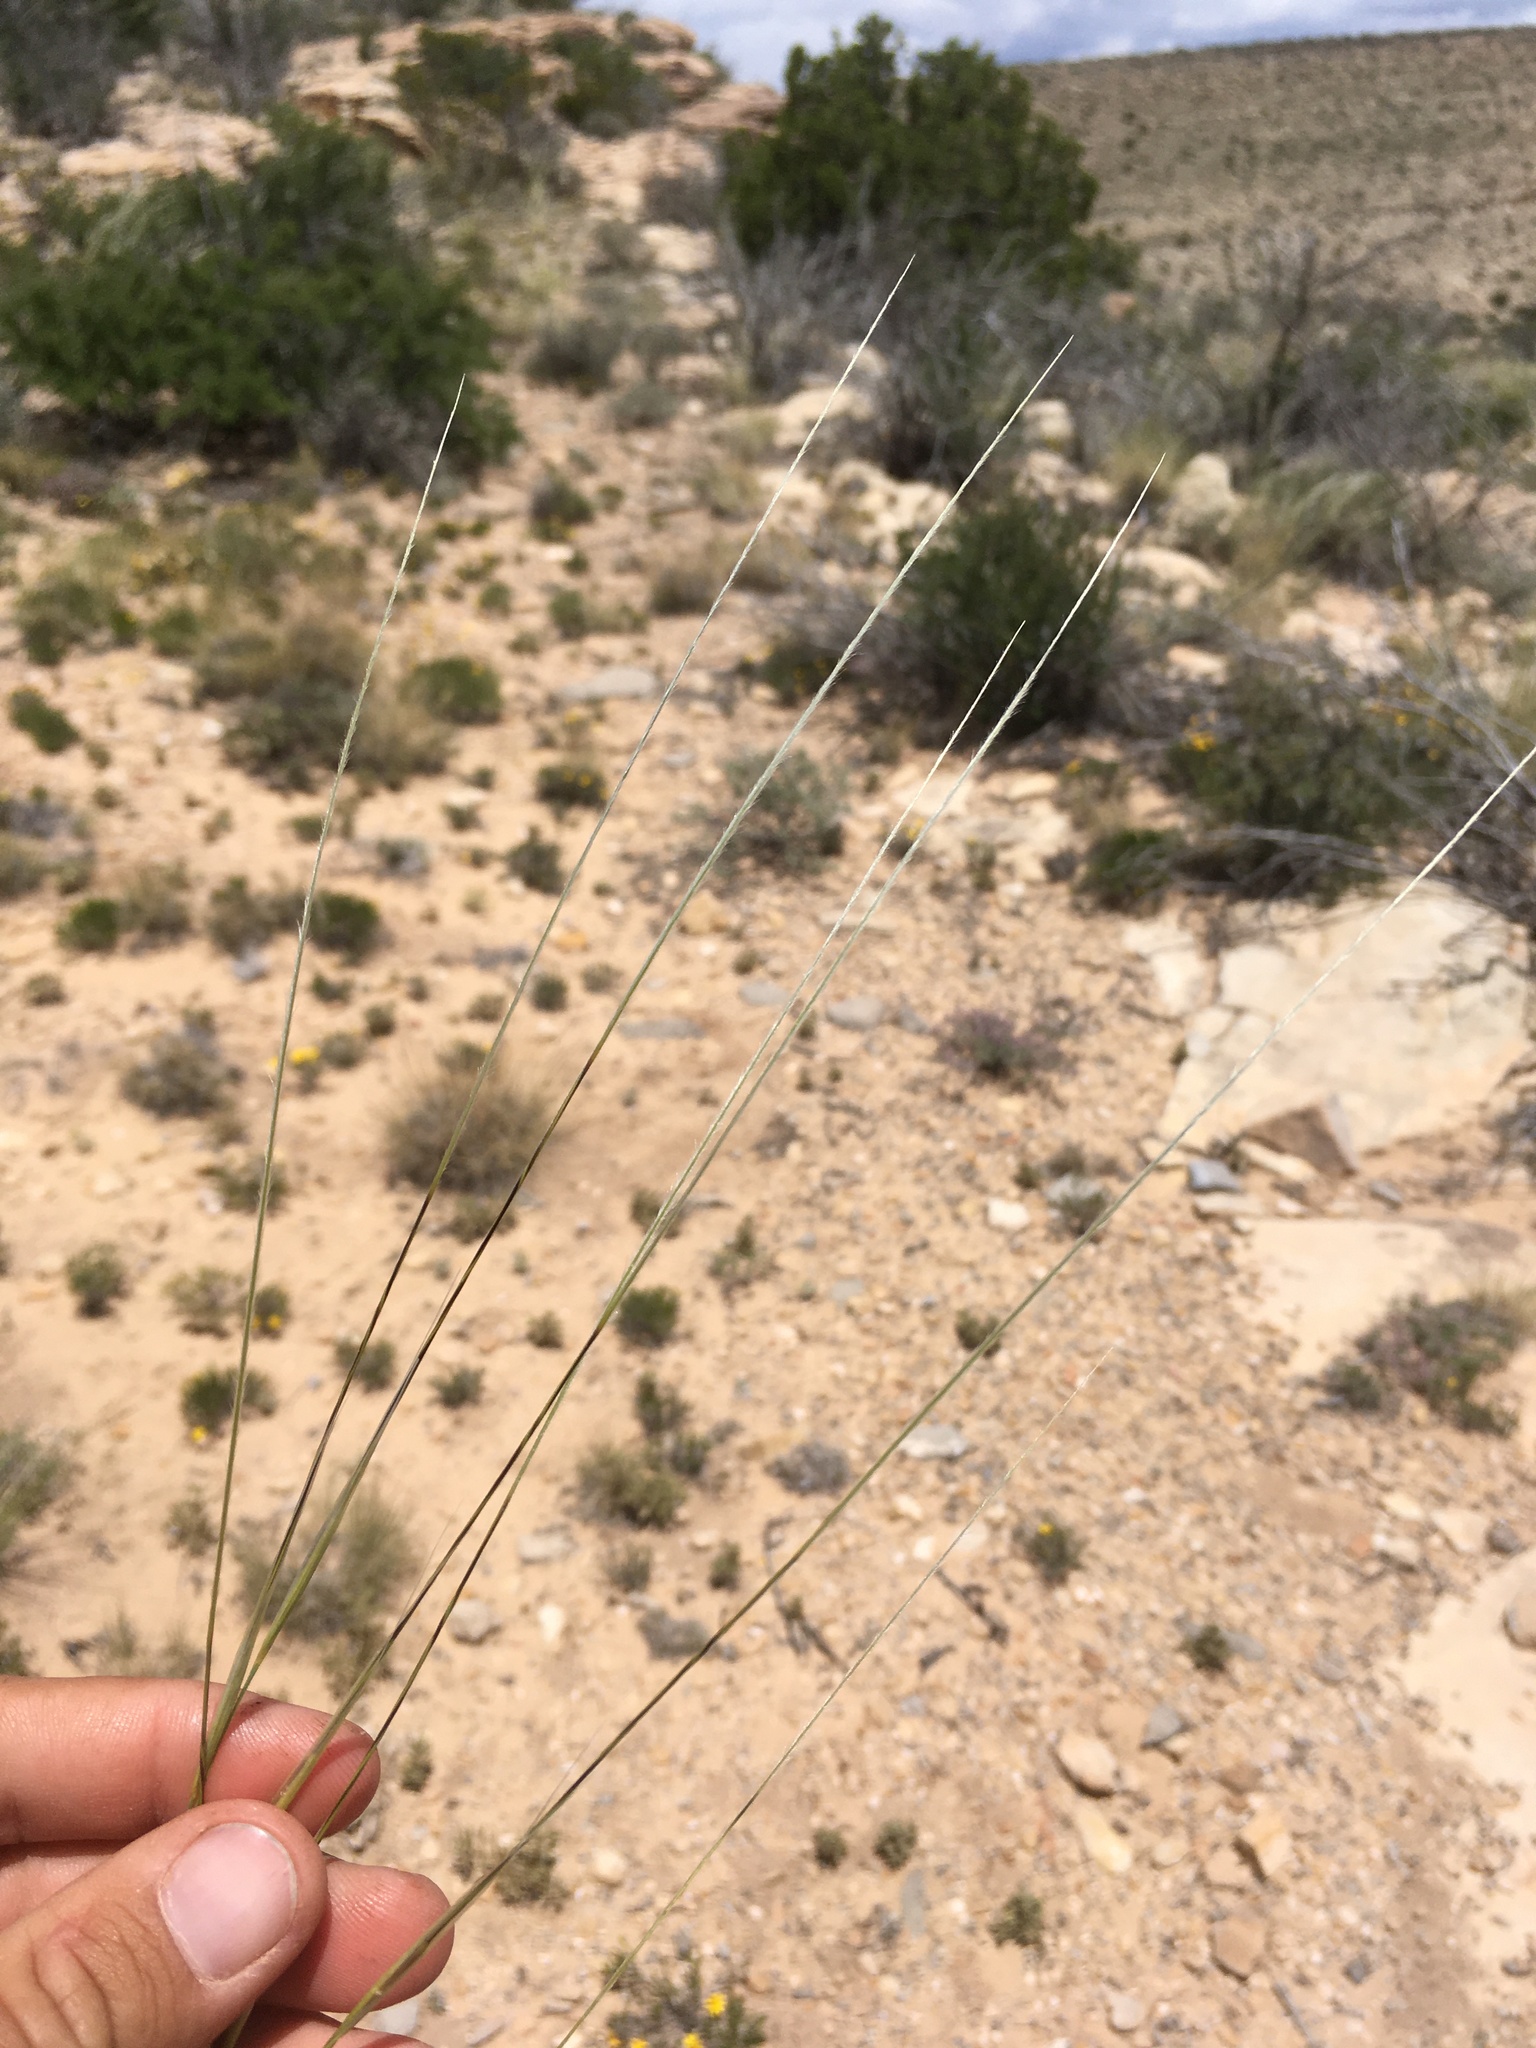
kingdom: Plantae
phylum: Tracheophyta
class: Liliopsida
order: Poales
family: Poaceae
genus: Hesperostipa
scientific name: Hesperostipa neomexicana
